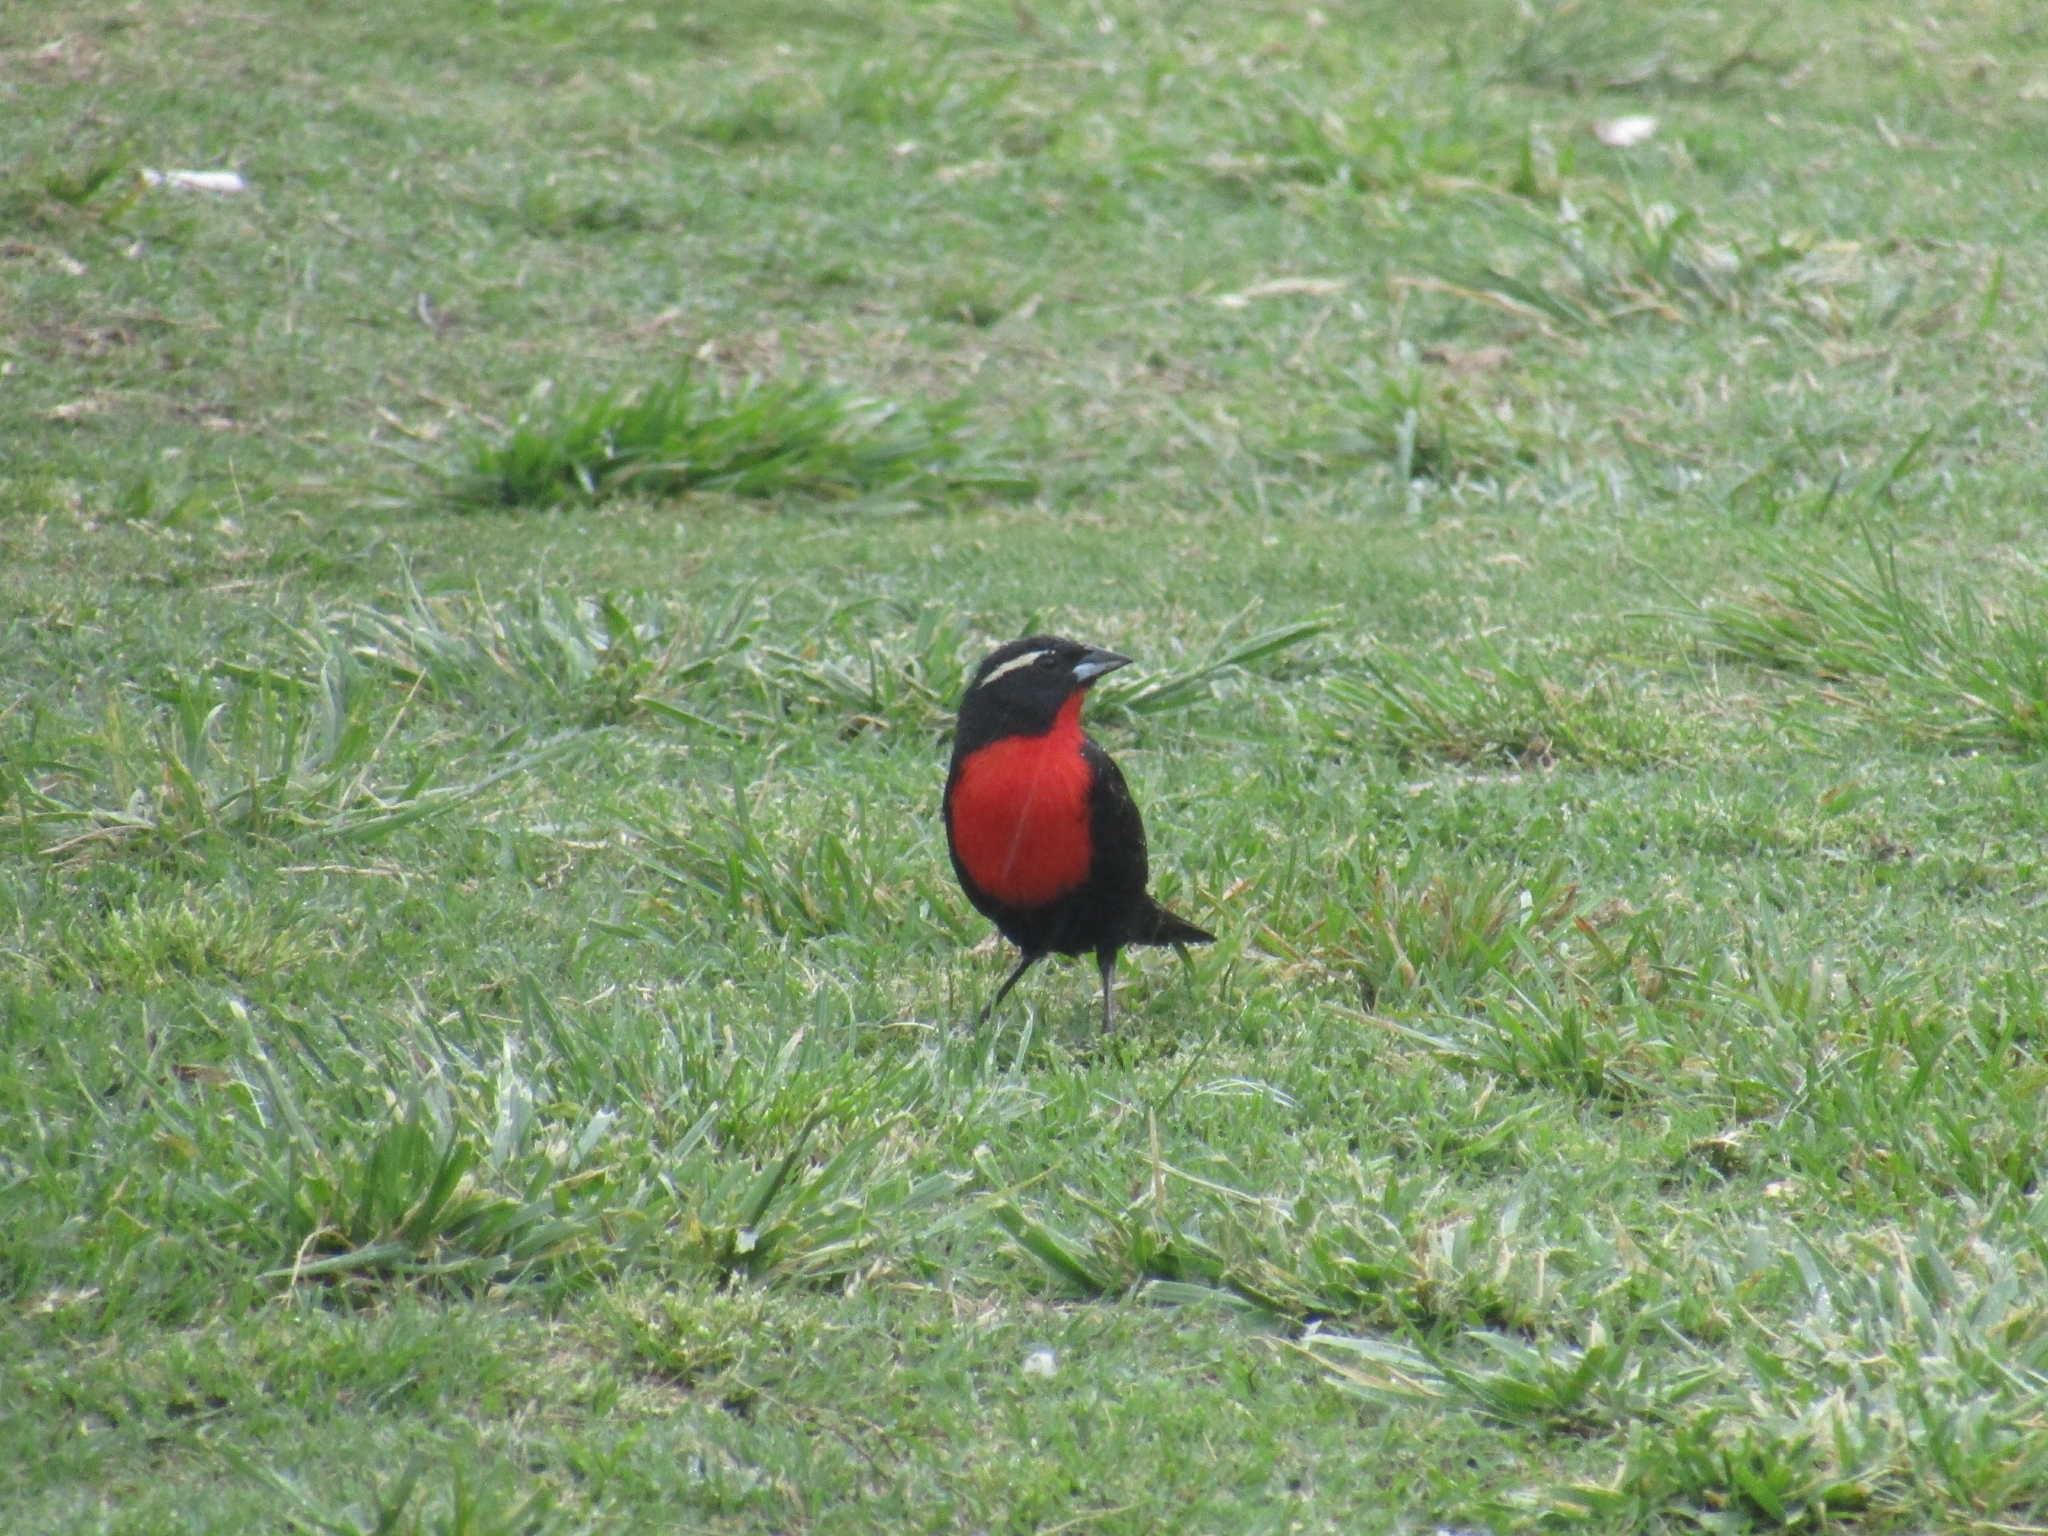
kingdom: Animalia
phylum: Chordata
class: Aves
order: Passeriformes
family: Icteridae
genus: Sturnella
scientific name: Sturnella superciliaris
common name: White-browed blackbird
